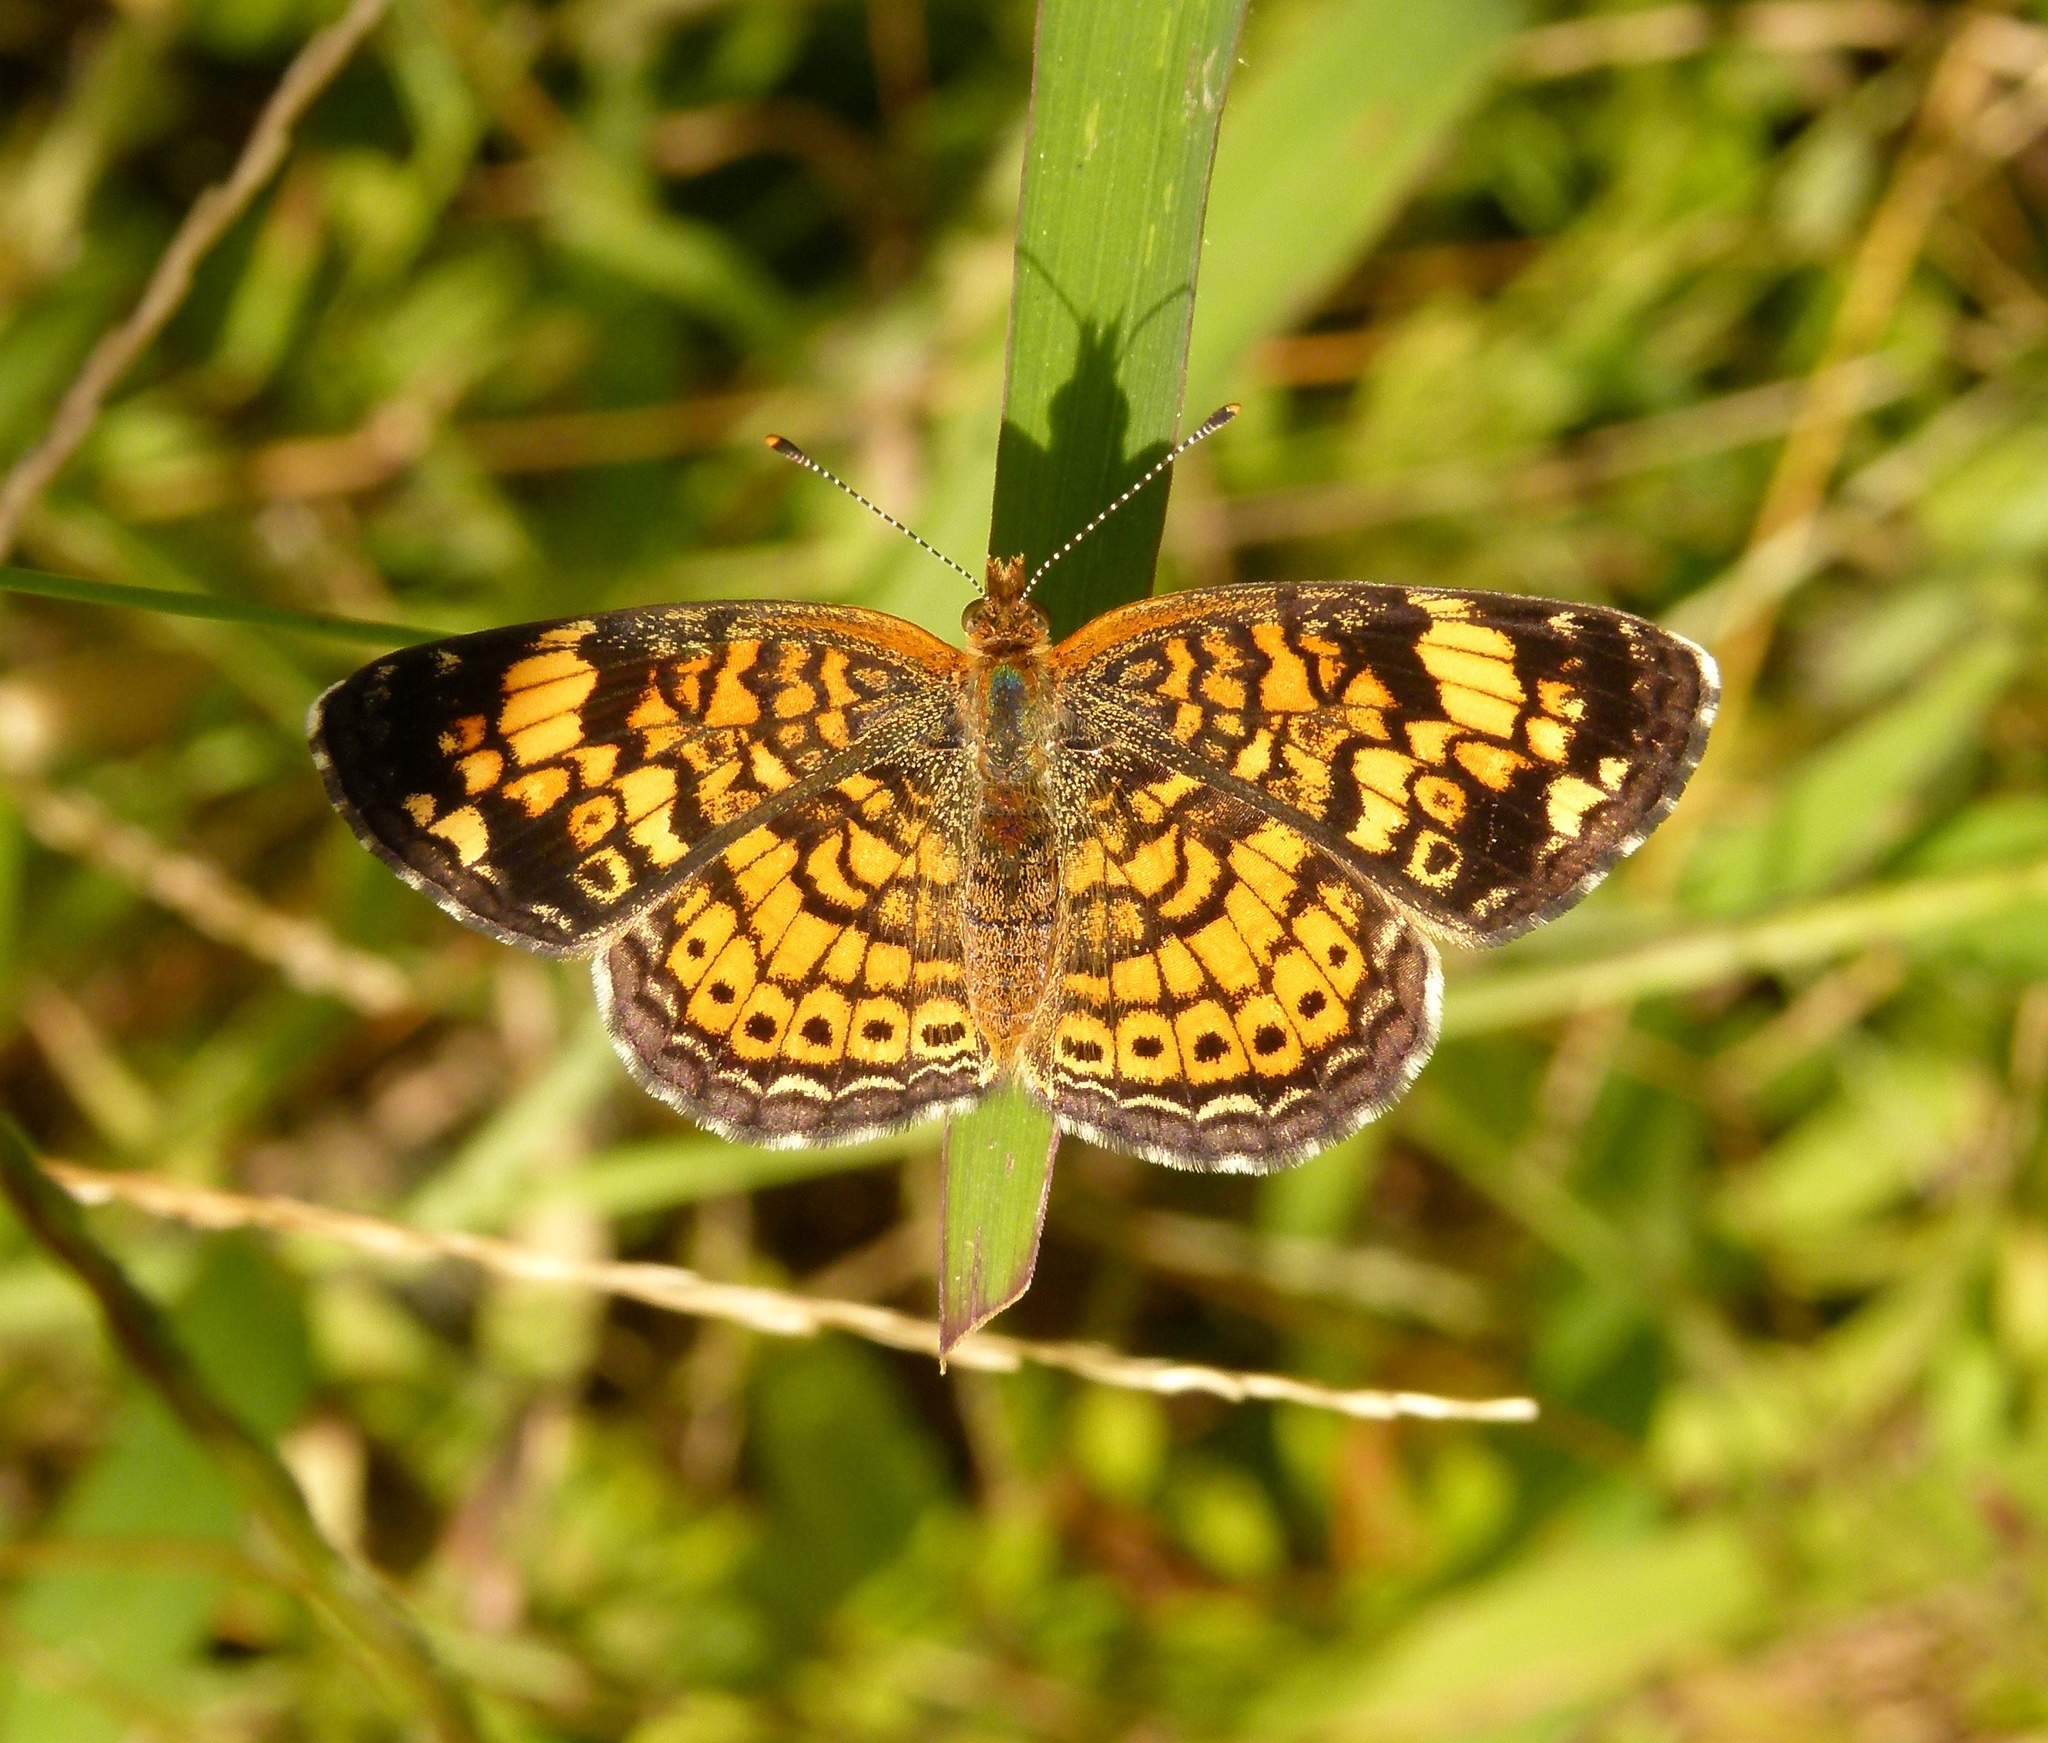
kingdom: Animalia
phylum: Arthropoda
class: Insecta
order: Lepidoptera
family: Nymphalidae
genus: Phyciodes
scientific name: Phyciodes tharos
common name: Pearl crescent
